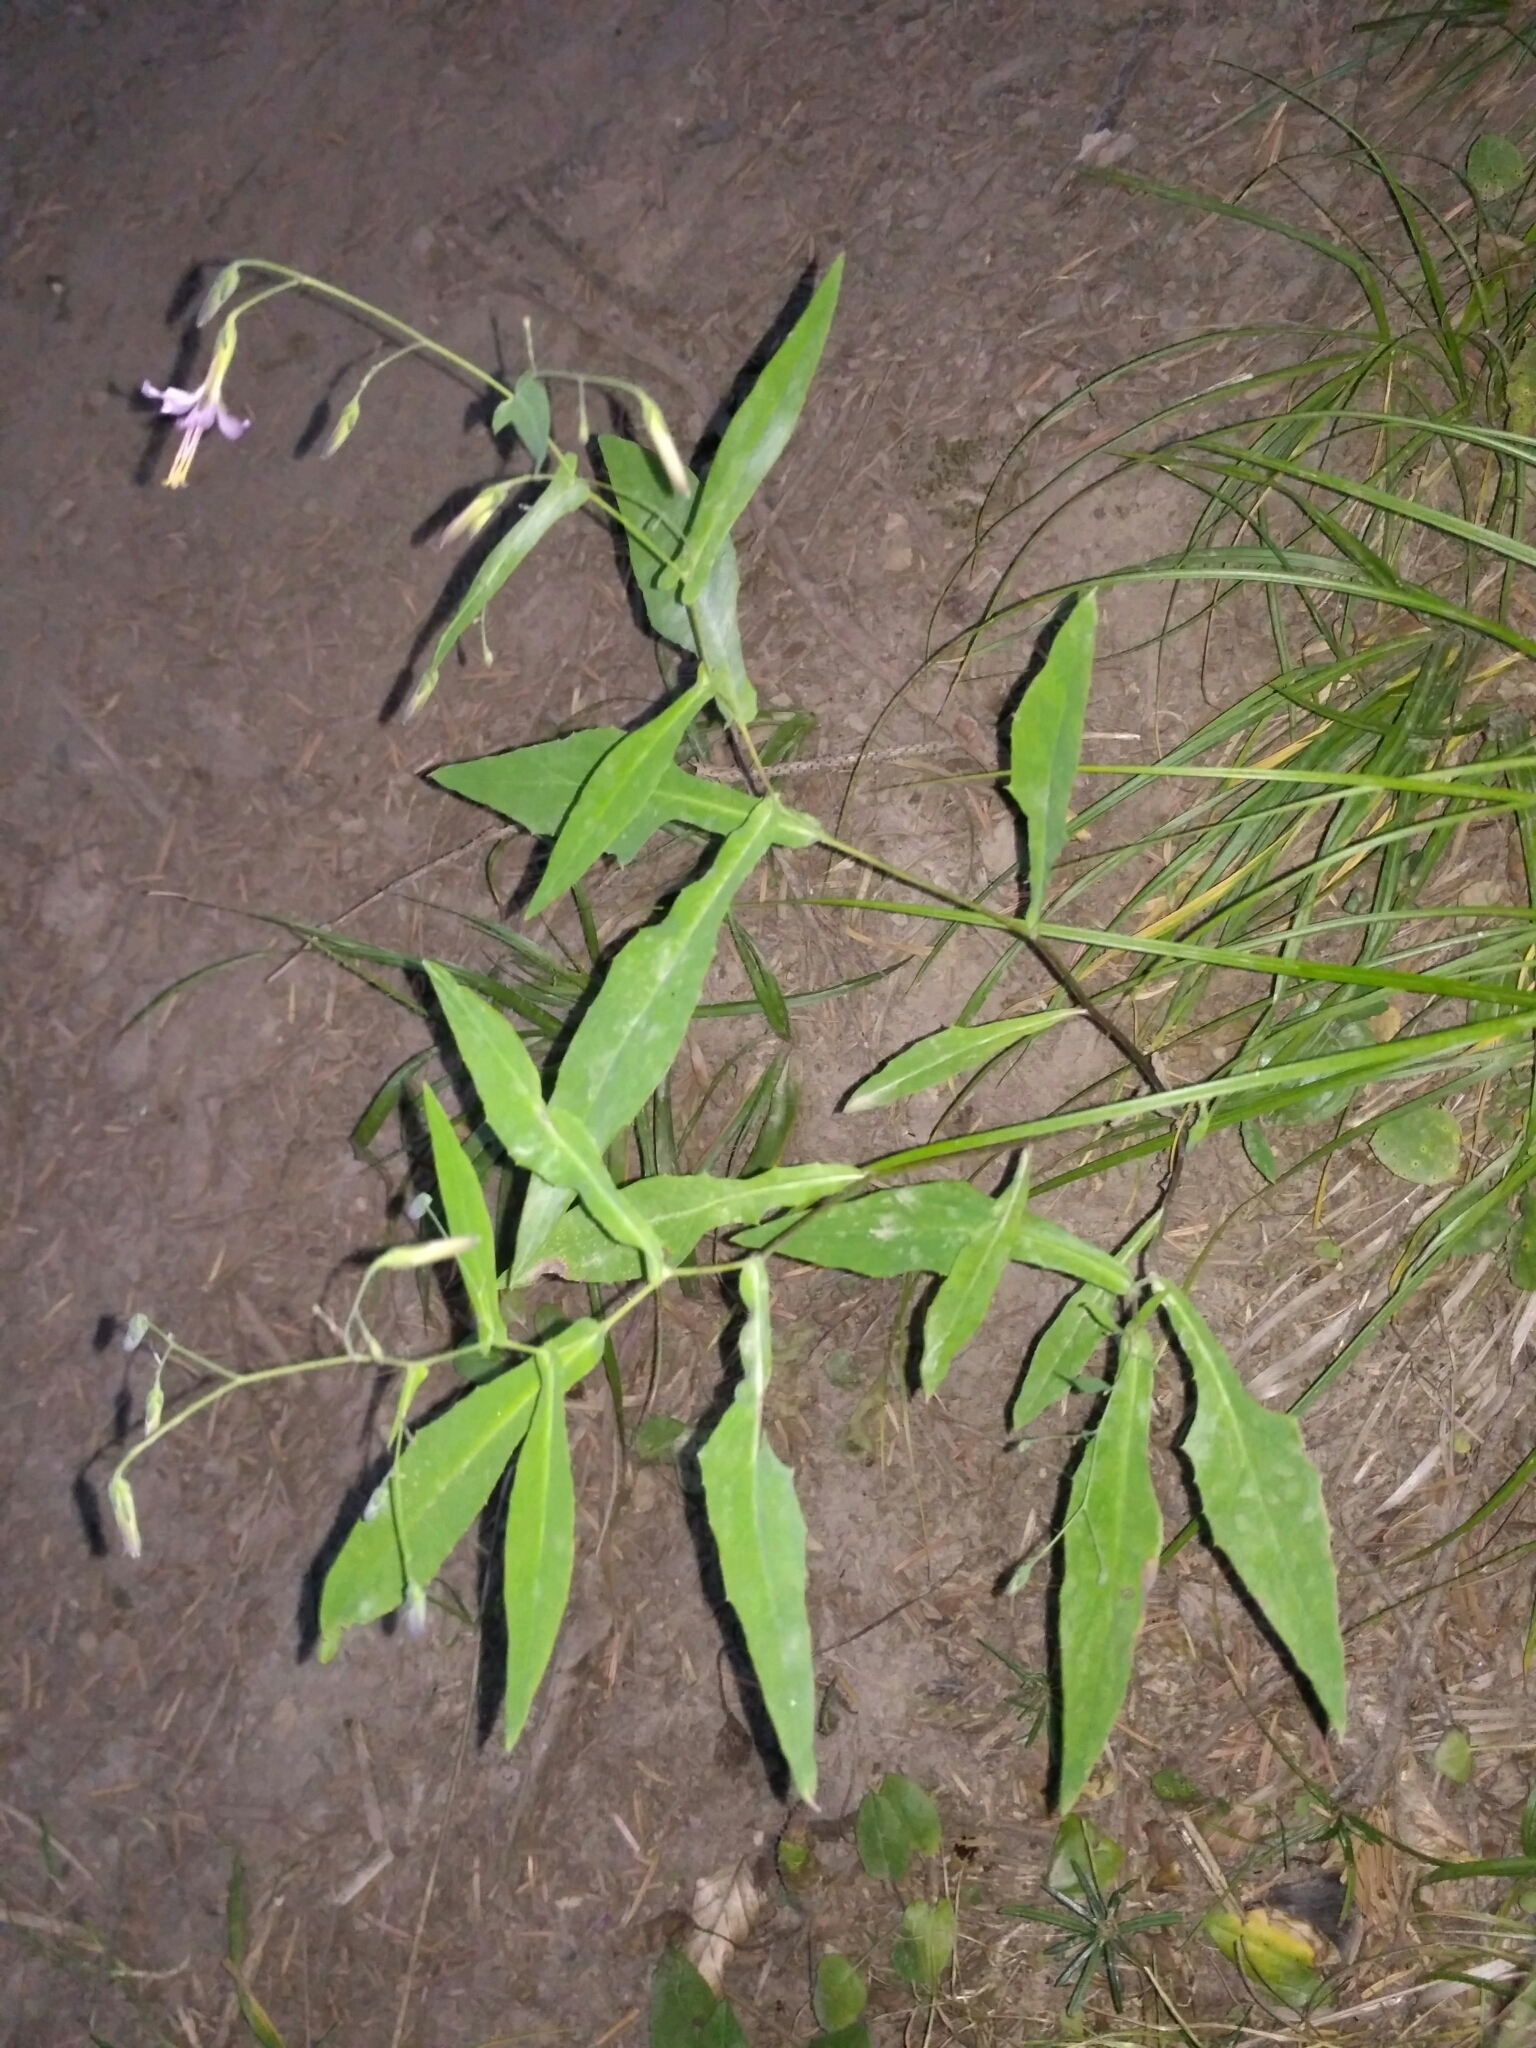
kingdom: Plantae
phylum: Tracheophyta
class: Magnoliopsida
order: Asterales
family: Asteraceae
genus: Prenanthes
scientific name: Prenanthes purpurea
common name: Purple lettuce
